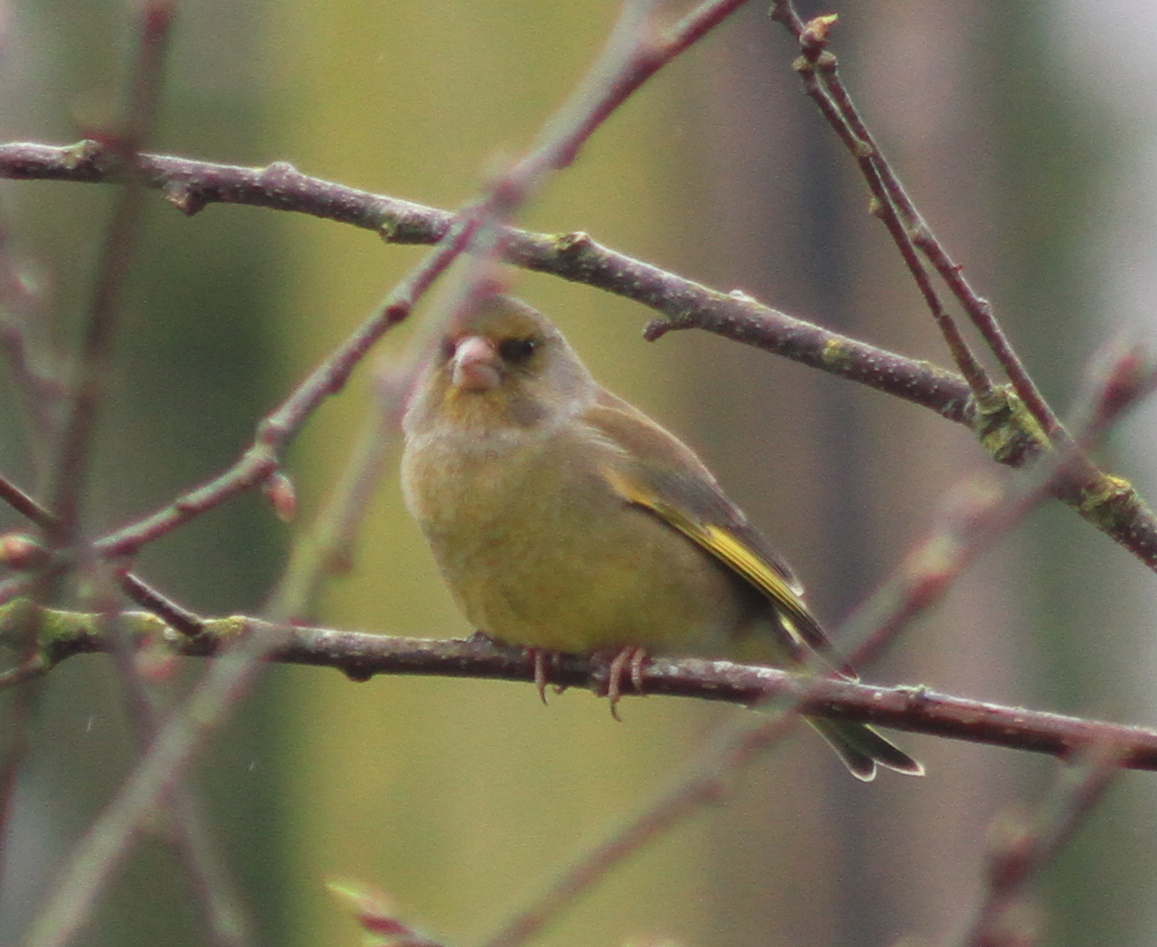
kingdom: Plantae
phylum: Tracheophyta
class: Liliopsida
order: Poales
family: Poaceae
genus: Chloris
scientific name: Chloris chloris
